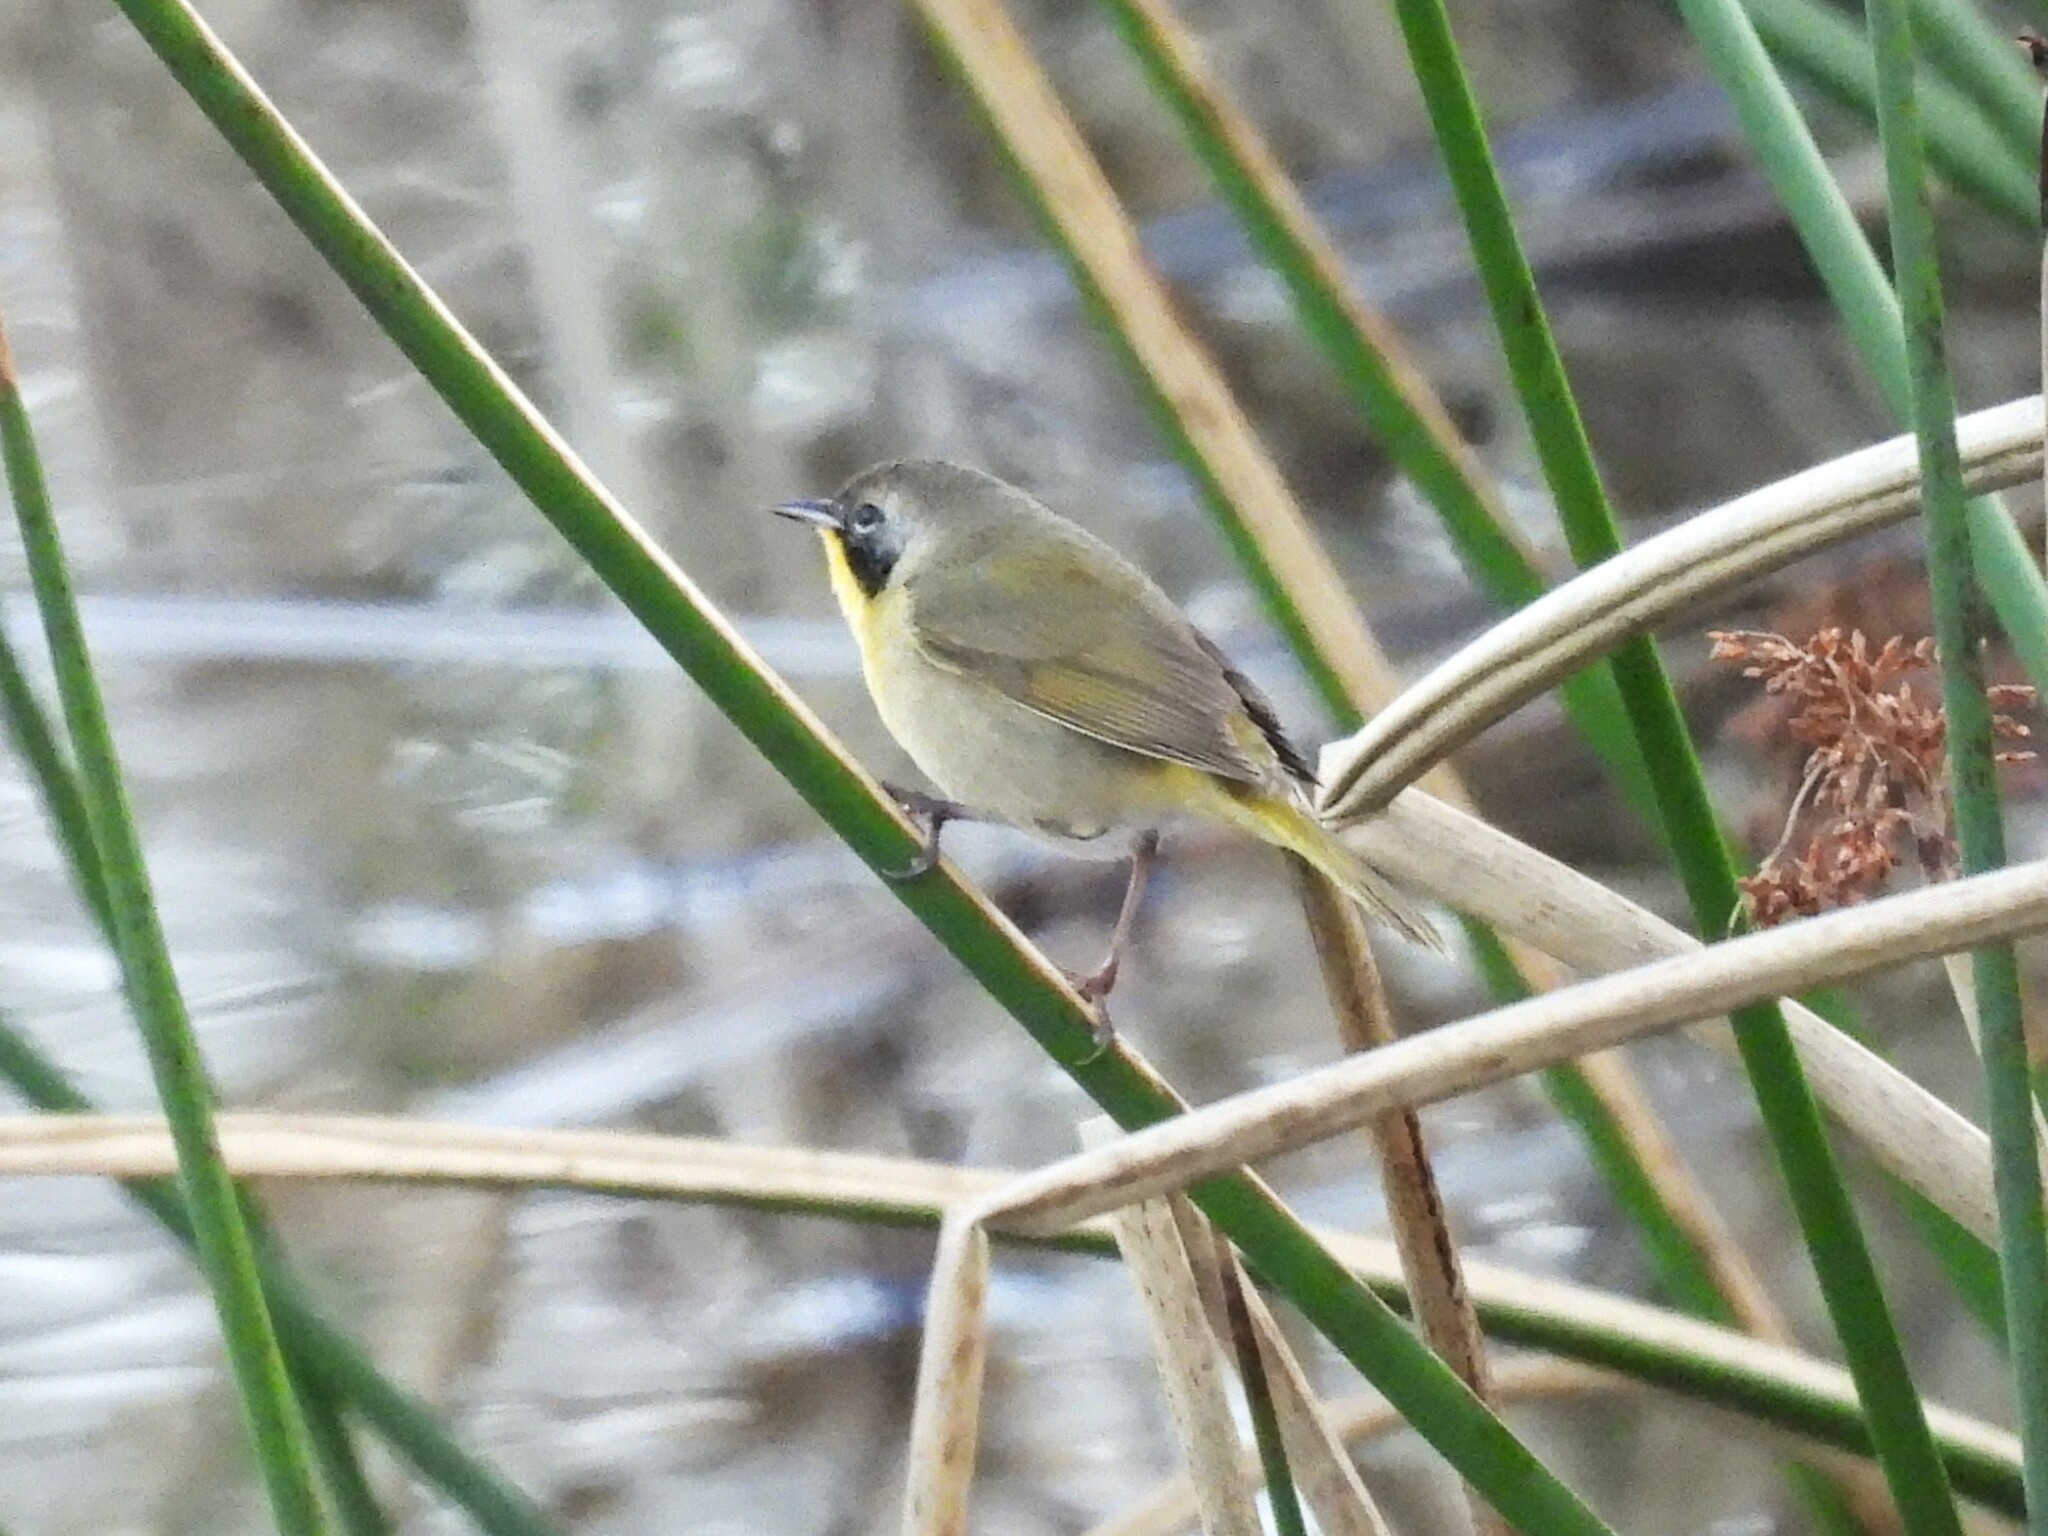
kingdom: Animalia
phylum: Chordata
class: Aves
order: Passeriformes
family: Parulidae
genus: Geothlypis
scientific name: Geothlypis trichas
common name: Common yellowthroat
